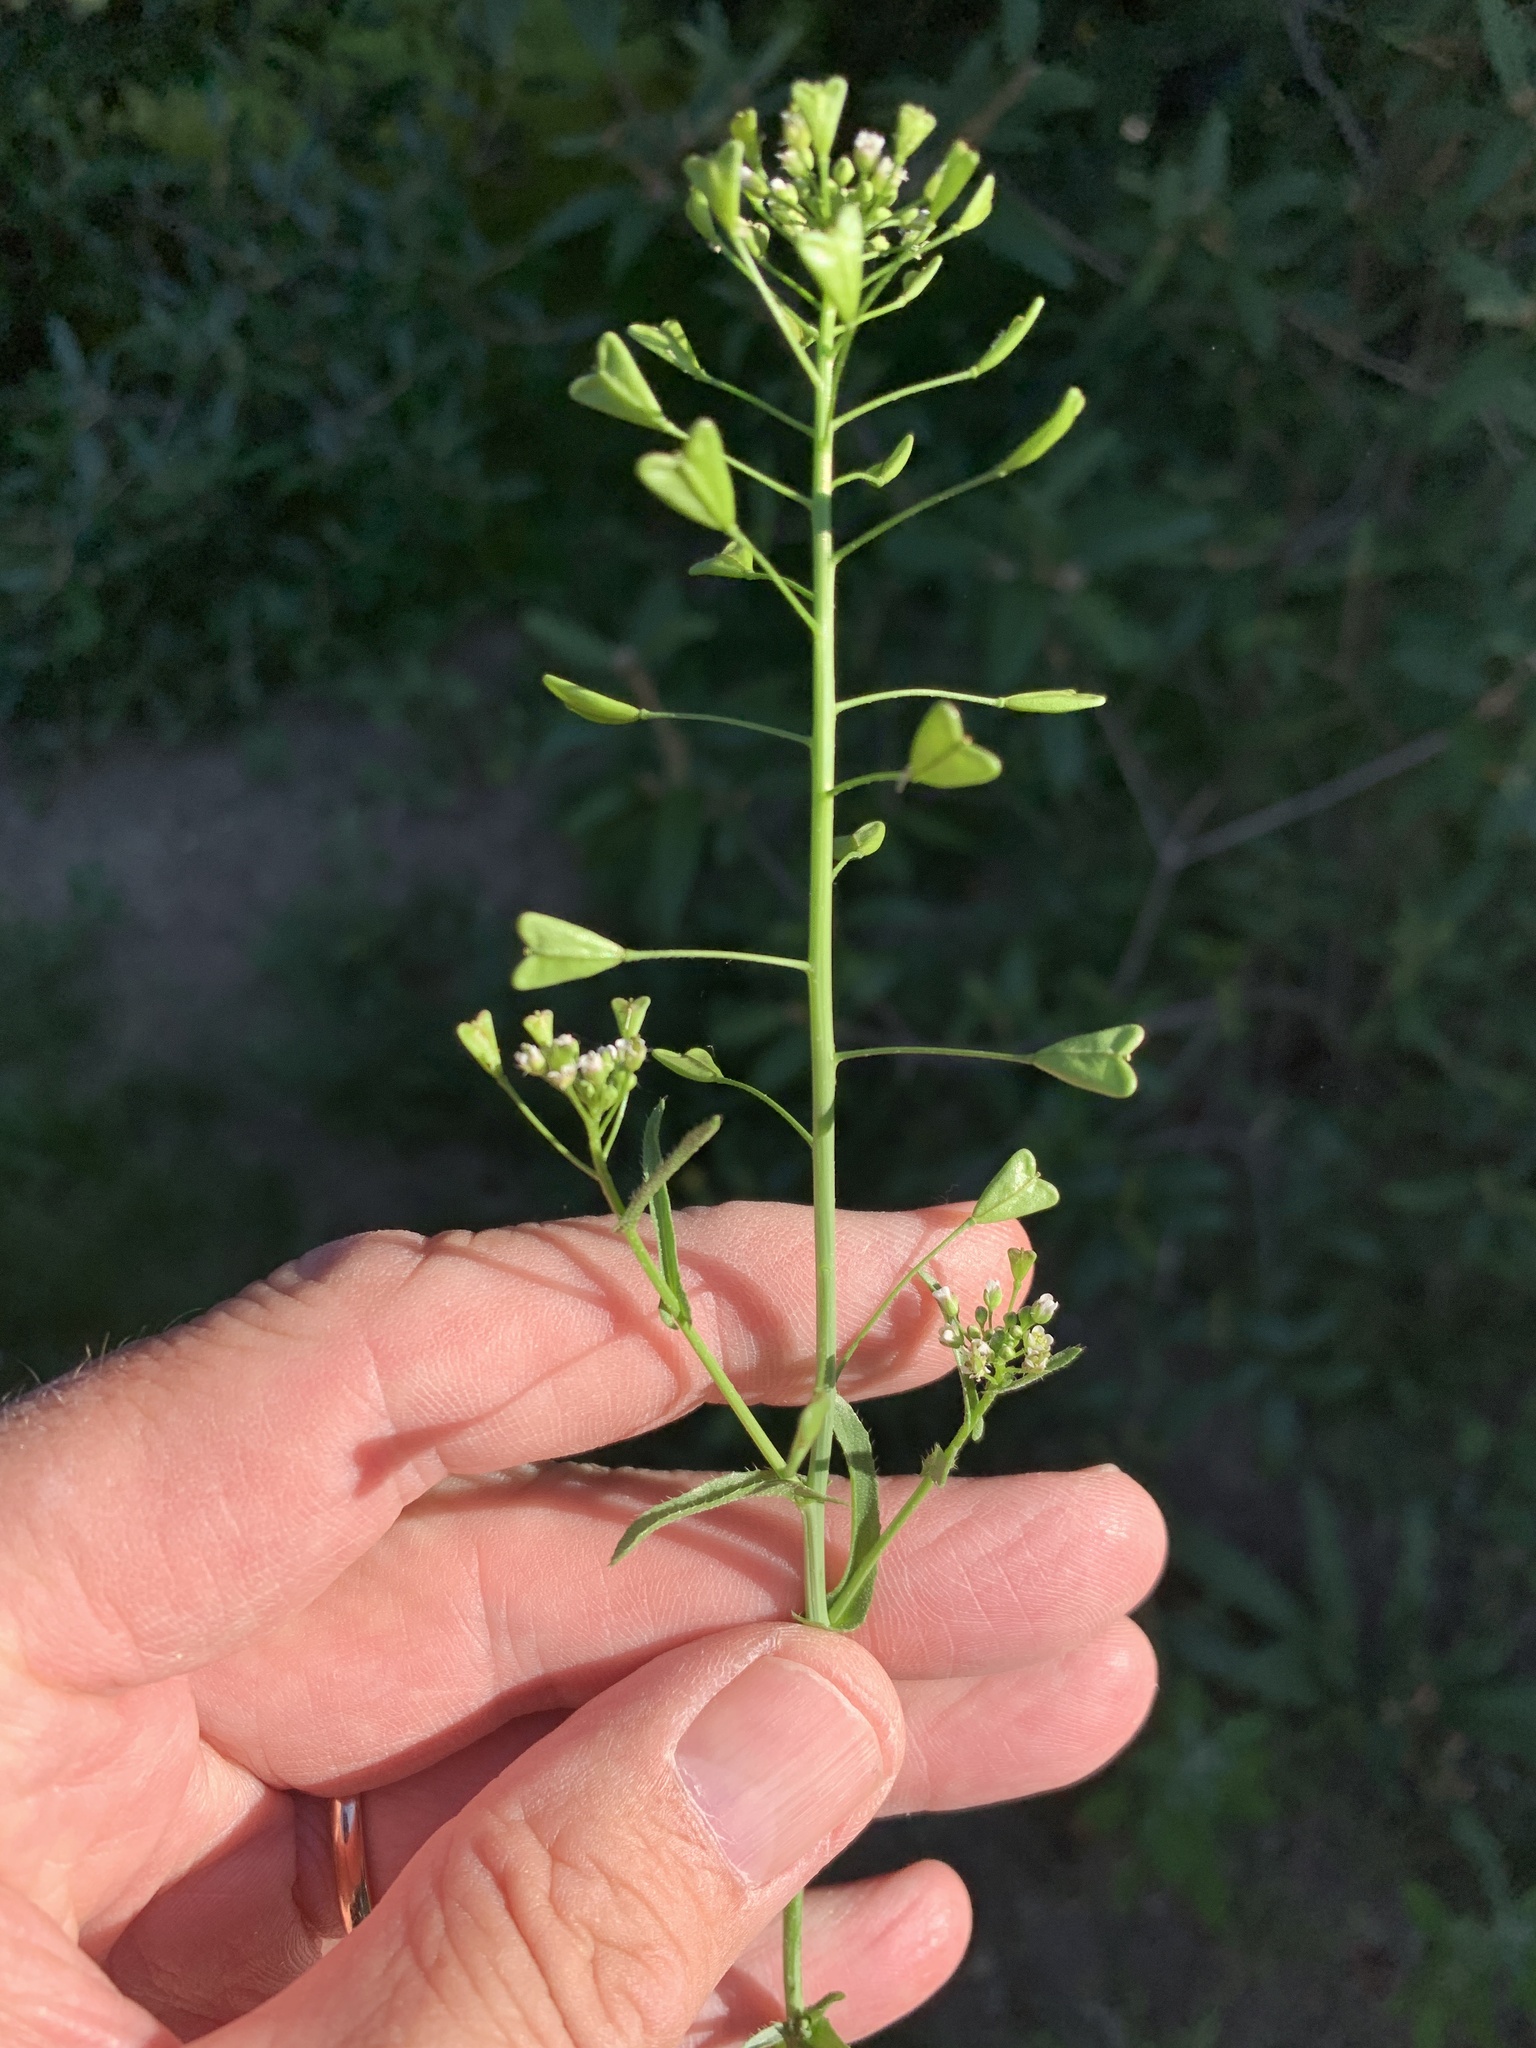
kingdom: Plantae
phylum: Tracheophyta
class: Magnoliopsida
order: Brassicales
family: Brassicaceae
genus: Capsella
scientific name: Capsella bursa-pastoris
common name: Shepherd's purse
